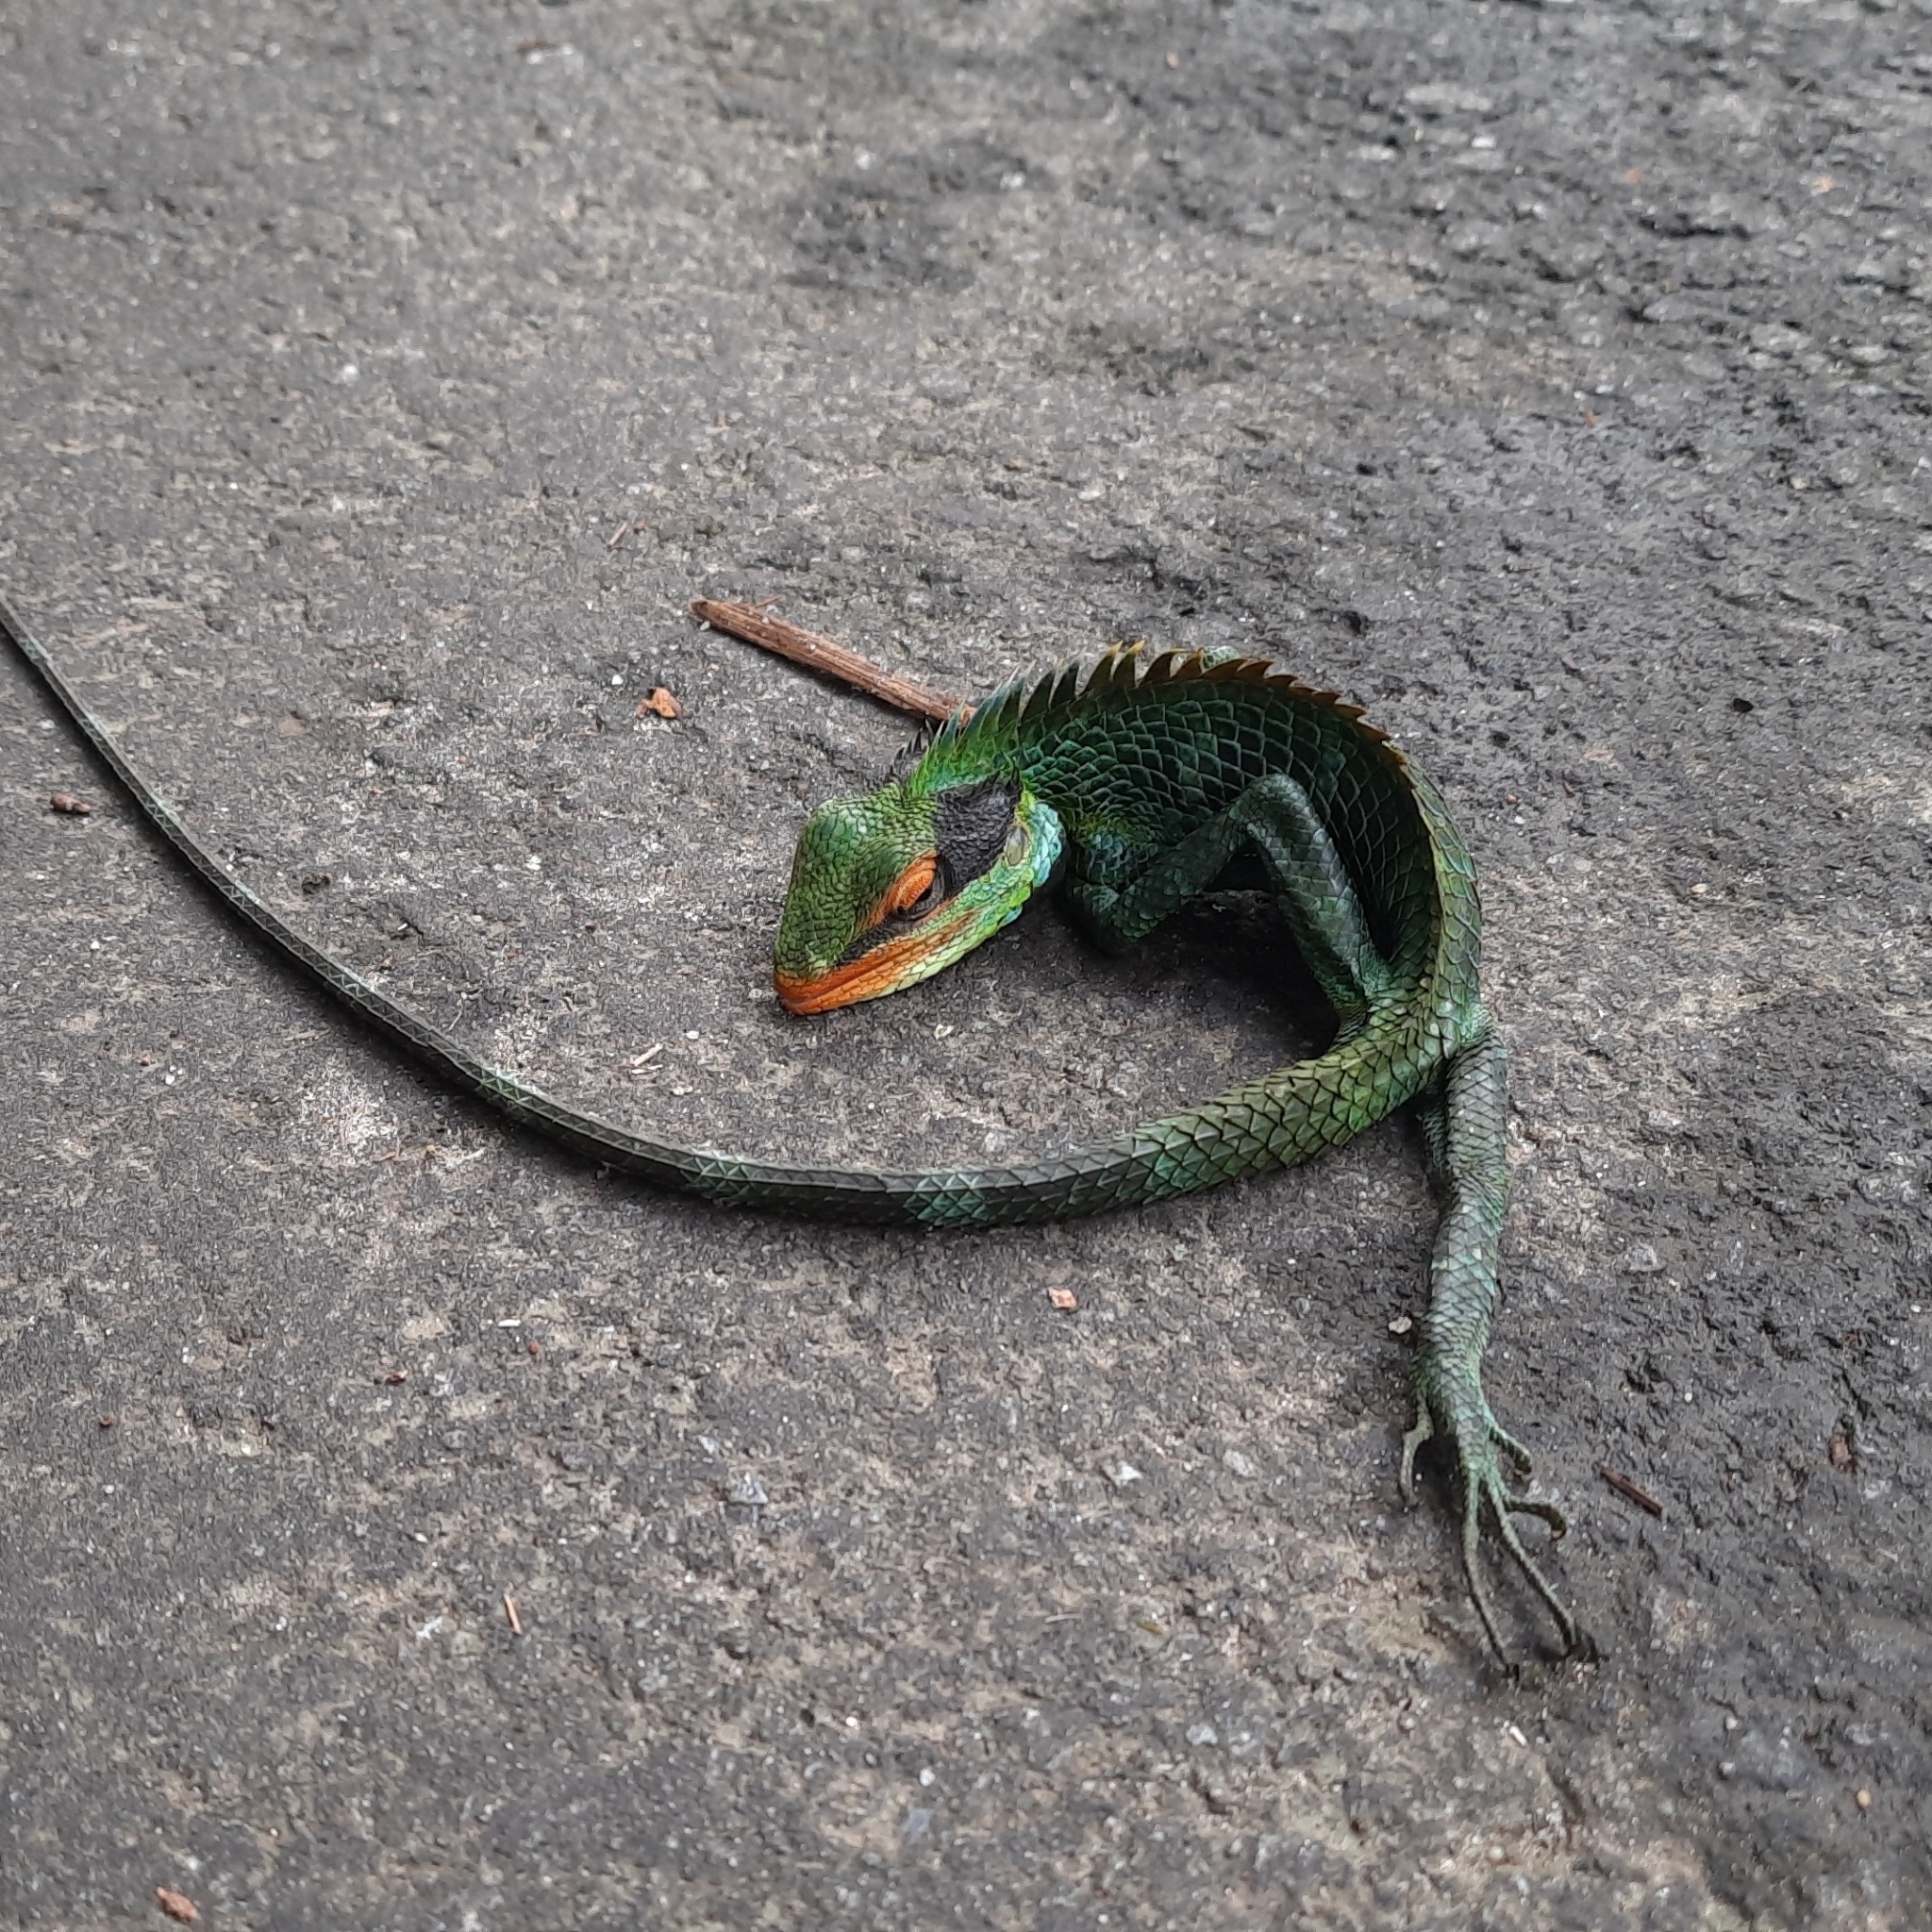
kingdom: Animalia
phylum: Chordata
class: Squamata
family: Agamidae
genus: Calotes
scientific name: Calotes grandisquamis
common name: Big scaled variable lizard
